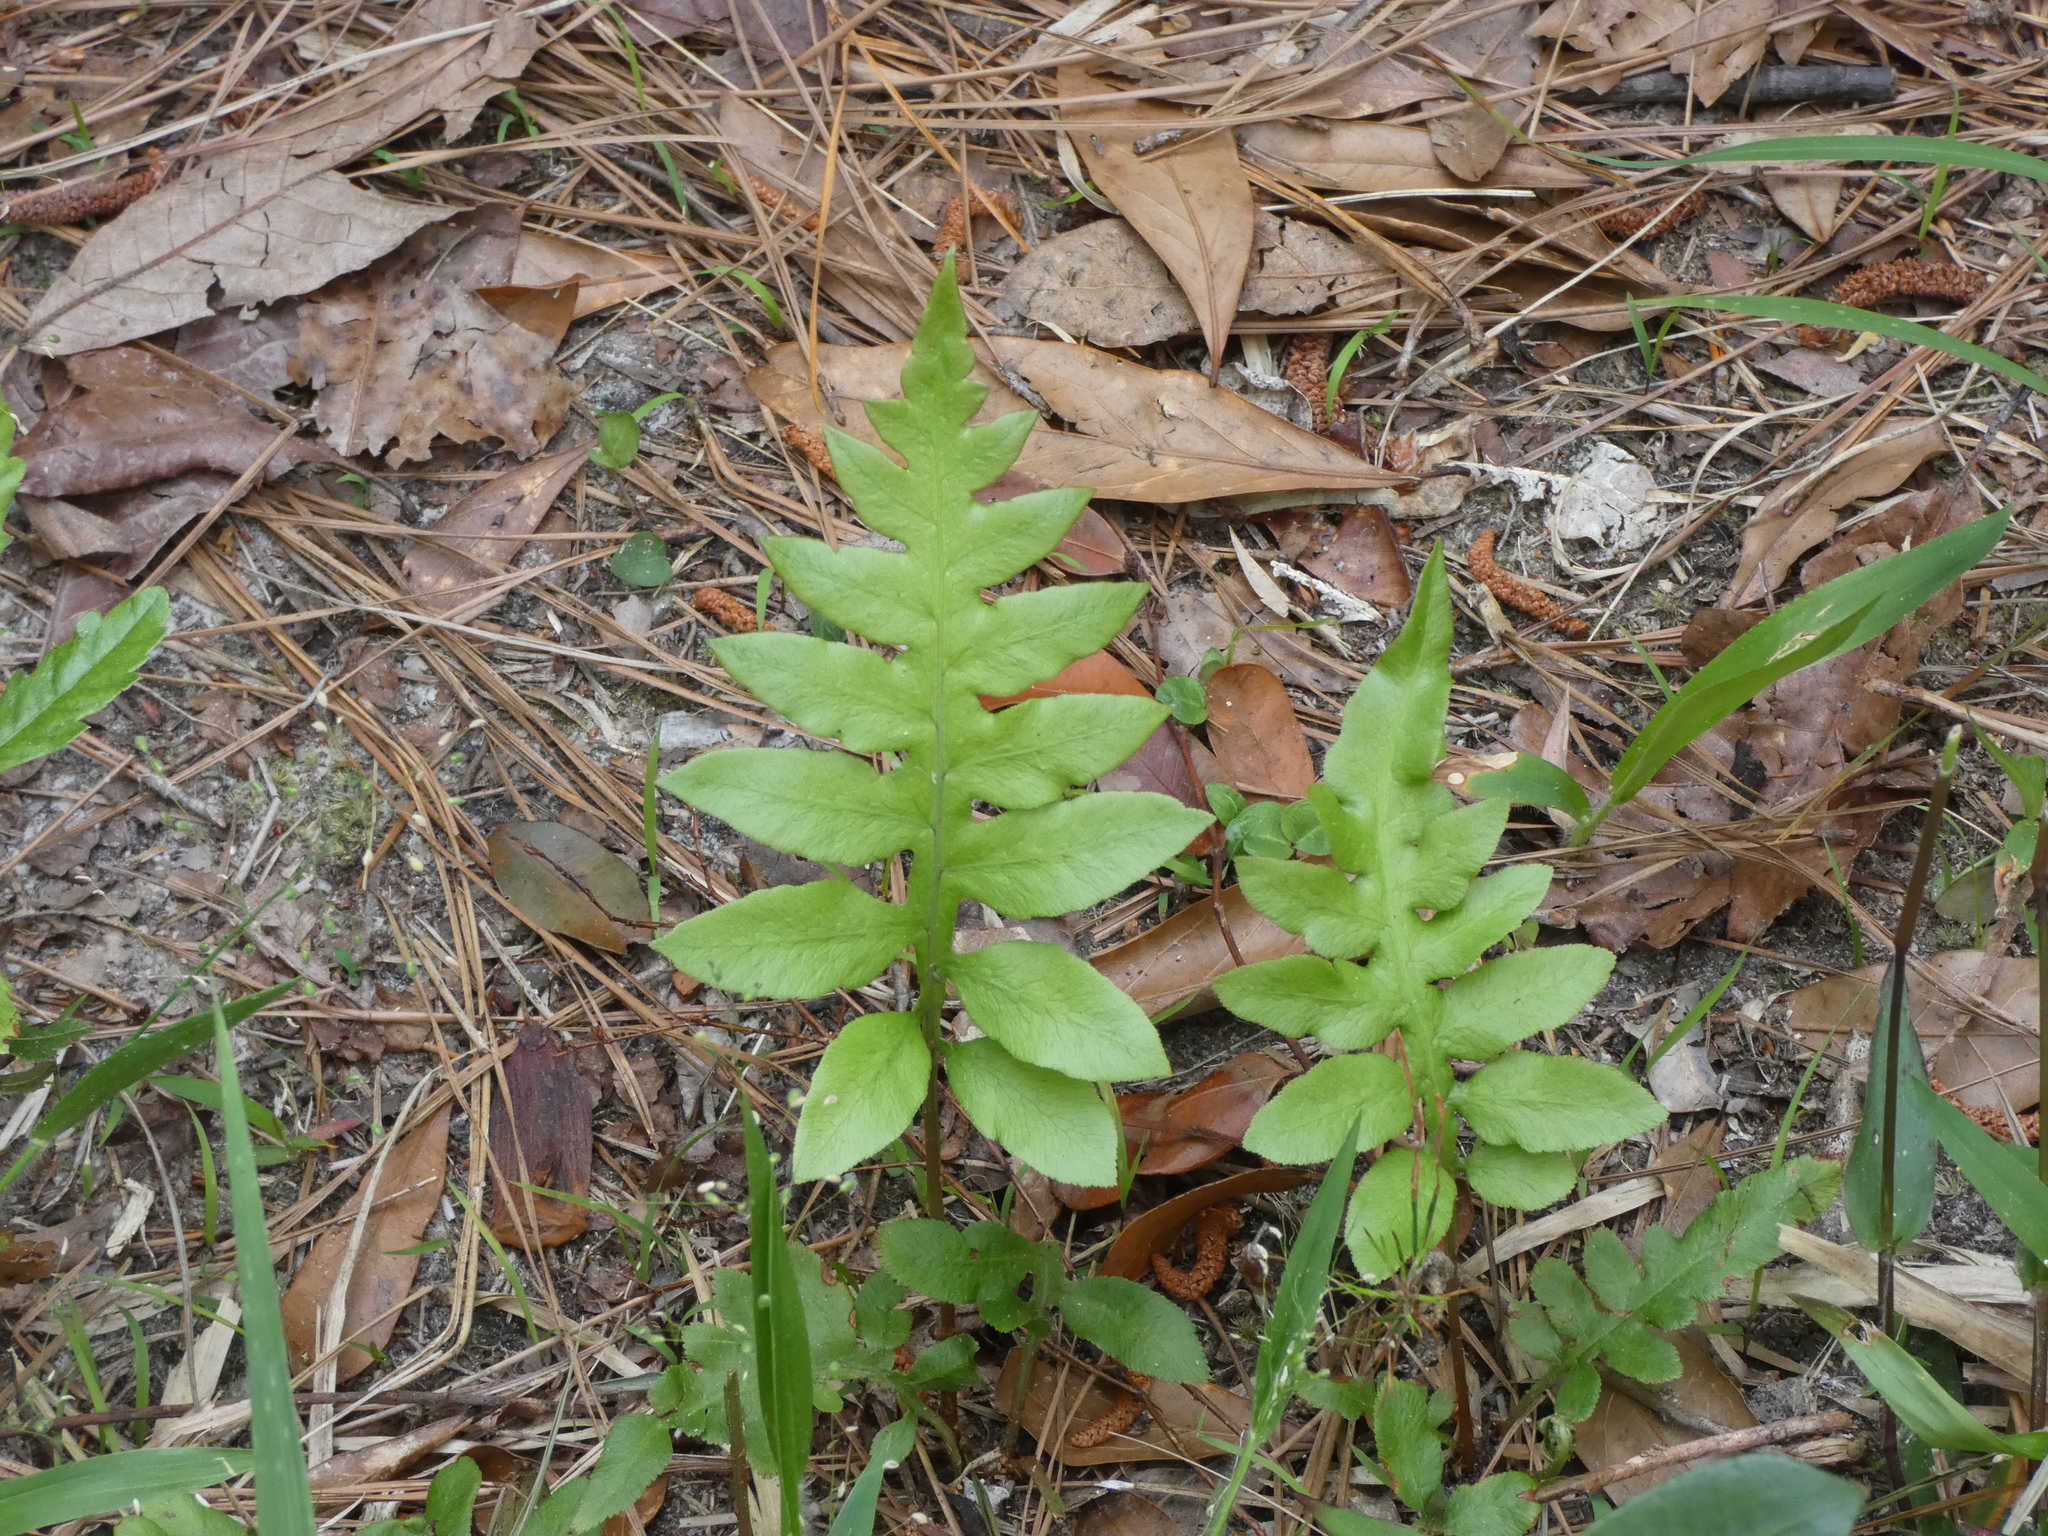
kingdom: Plantae
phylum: Tracheophyta
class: Polypodiopsida
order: Polypodiales
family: Blechnaceae
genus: Lorinseria
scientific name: Lorinseria areolata
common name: Dwarf chain fern
